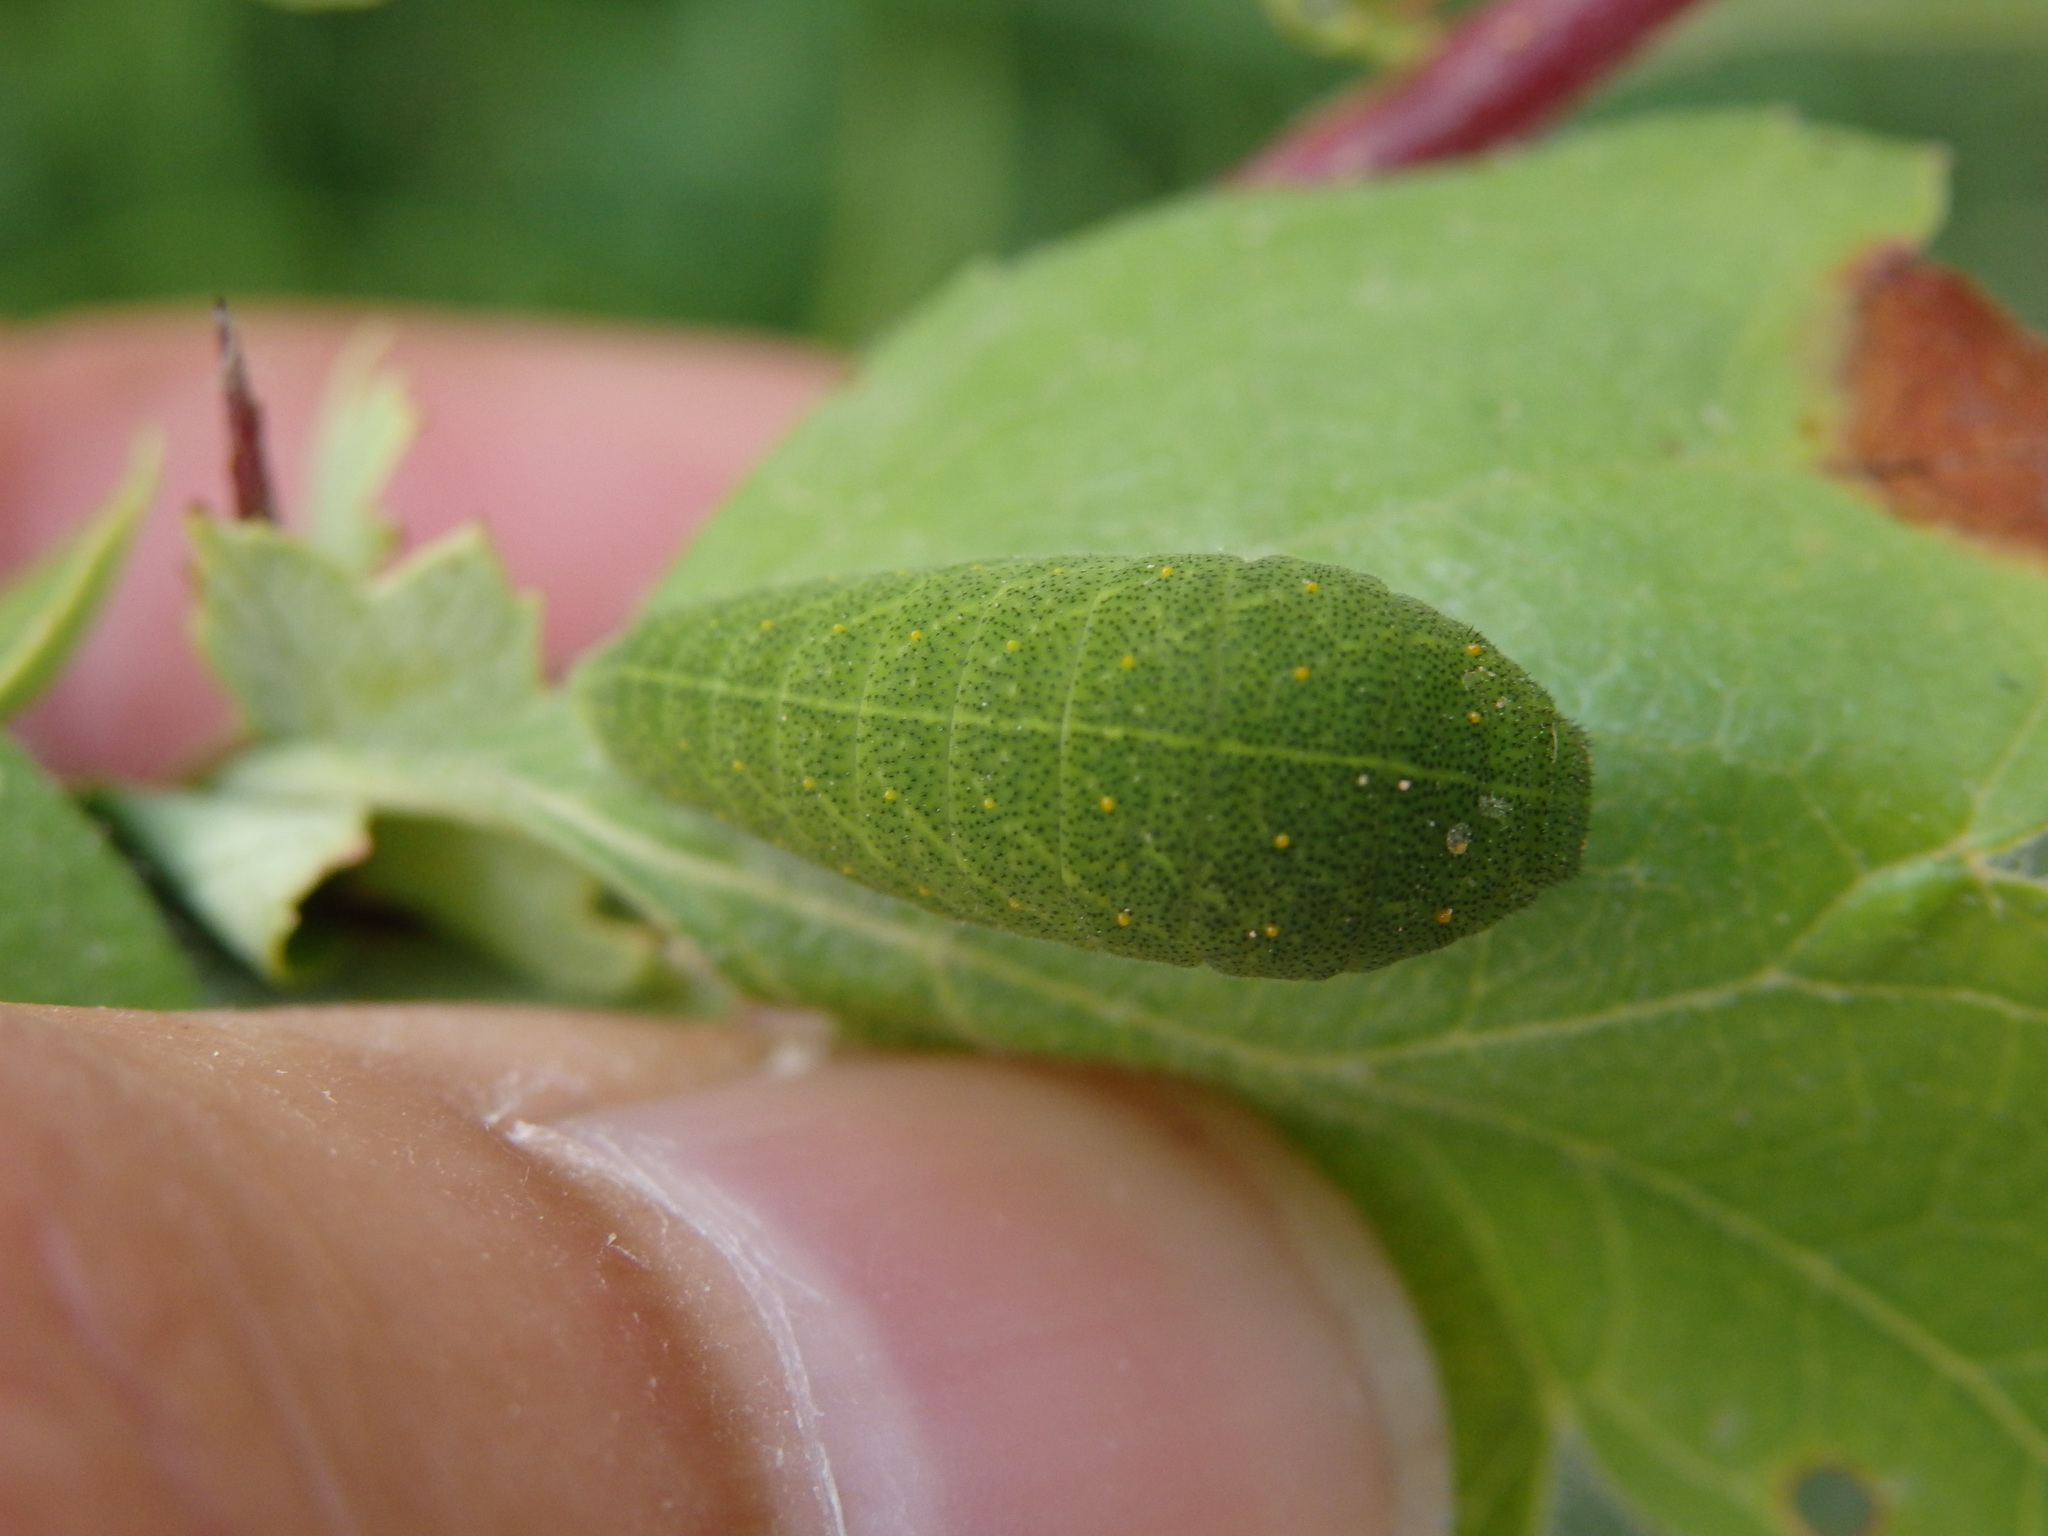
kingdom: Animalia
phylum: Arthropoda
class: Insecta
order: Lepidoptera
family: Papilionidae
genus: Iphiclides
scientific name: Iphiclides feisthamelii
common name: Iberian scarce swallowtail
